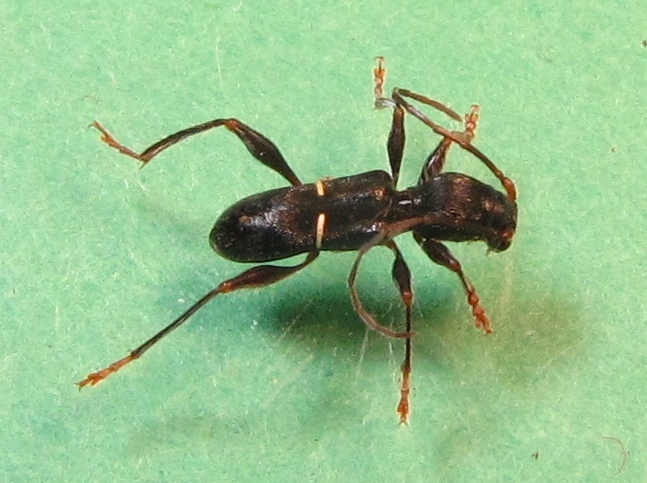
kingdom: Animalia
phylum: Arthropoda
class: Insecta
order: Coleoptera
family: Cerambycidae
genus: Euderces
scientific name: Euderces picipes
